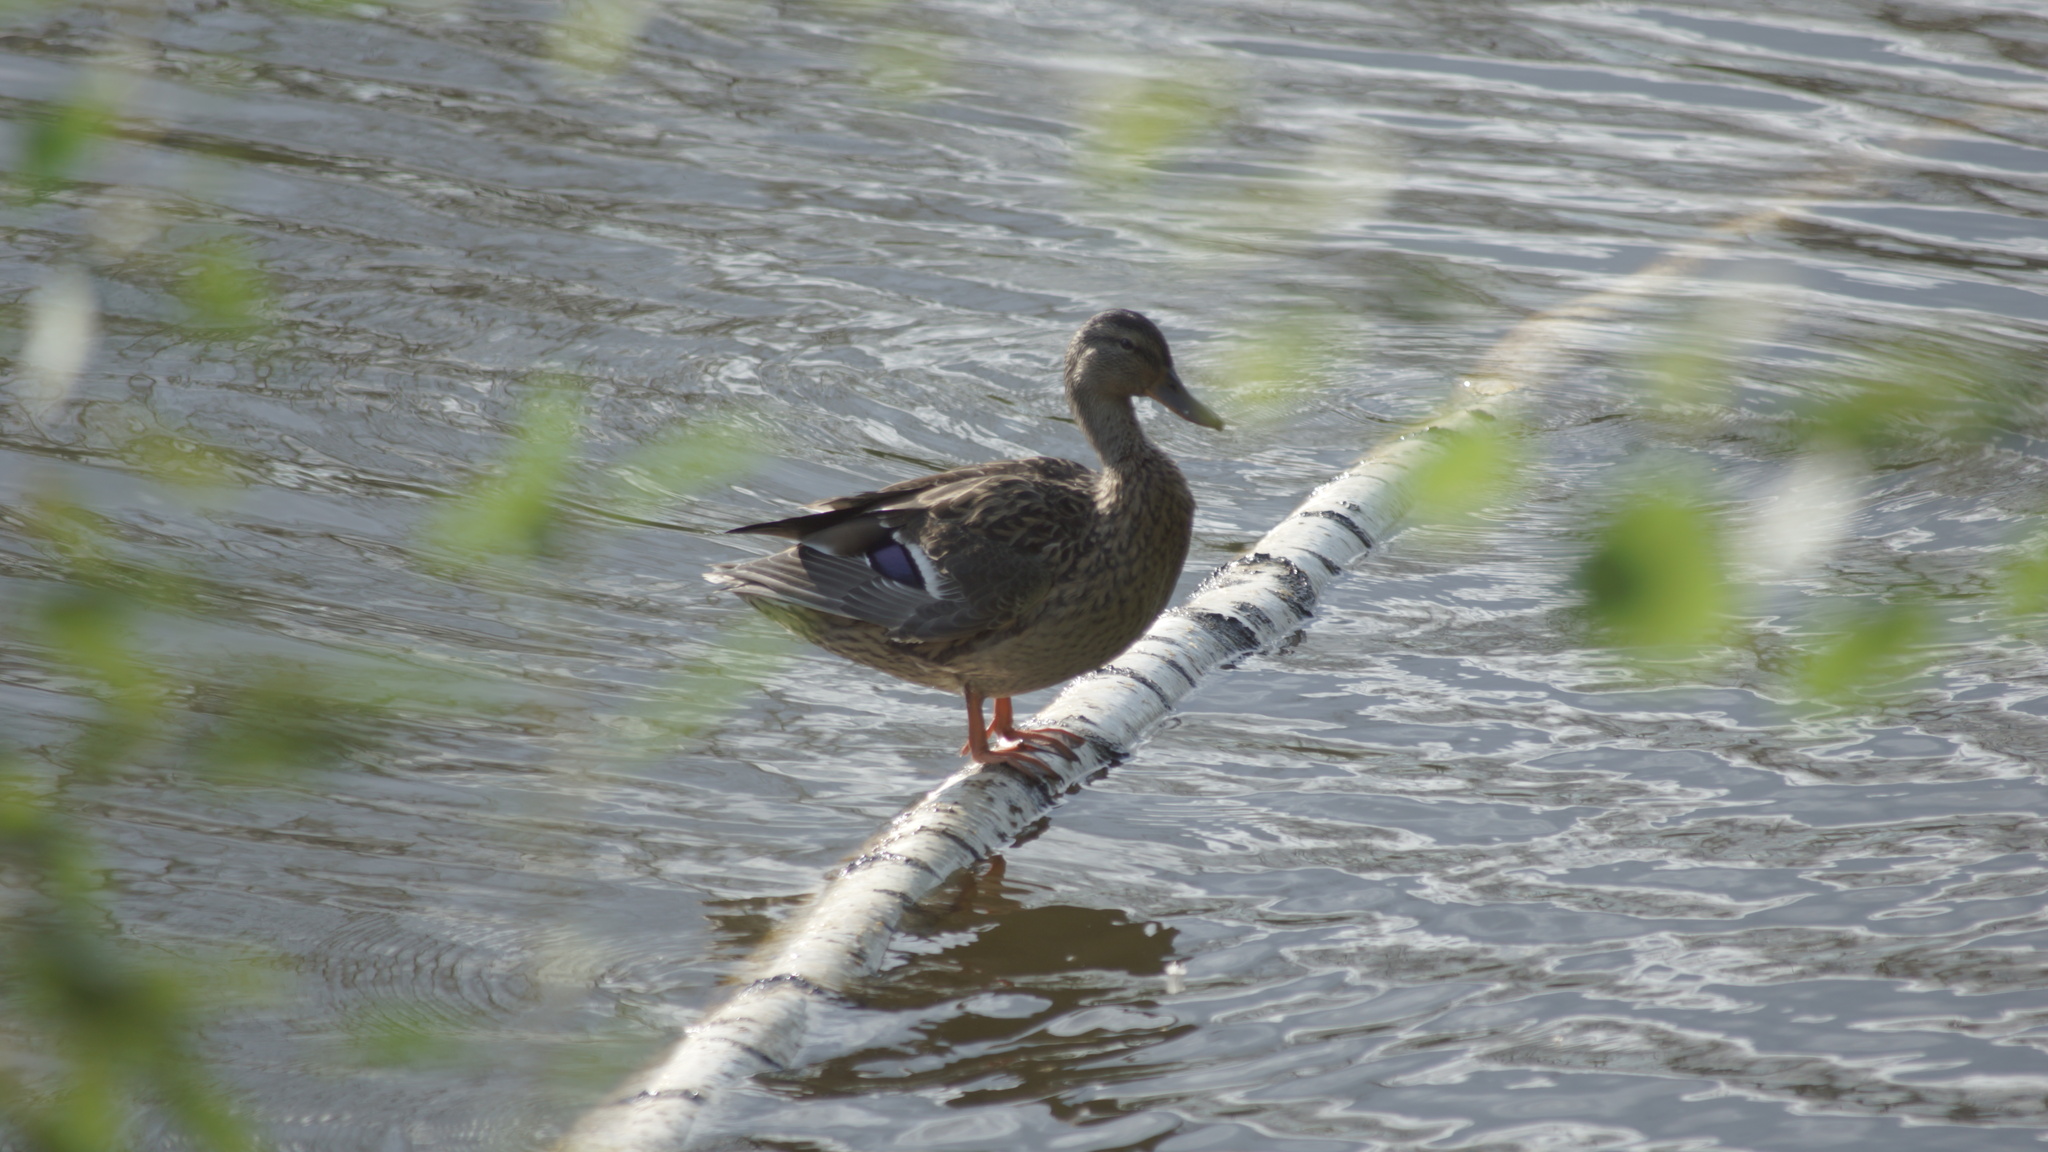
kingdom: Animalia
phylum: Chordata
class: Aves
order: Anseriformes
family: Anatidae
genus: Anas
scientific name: Anas platyrhynchos
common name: Mallard
